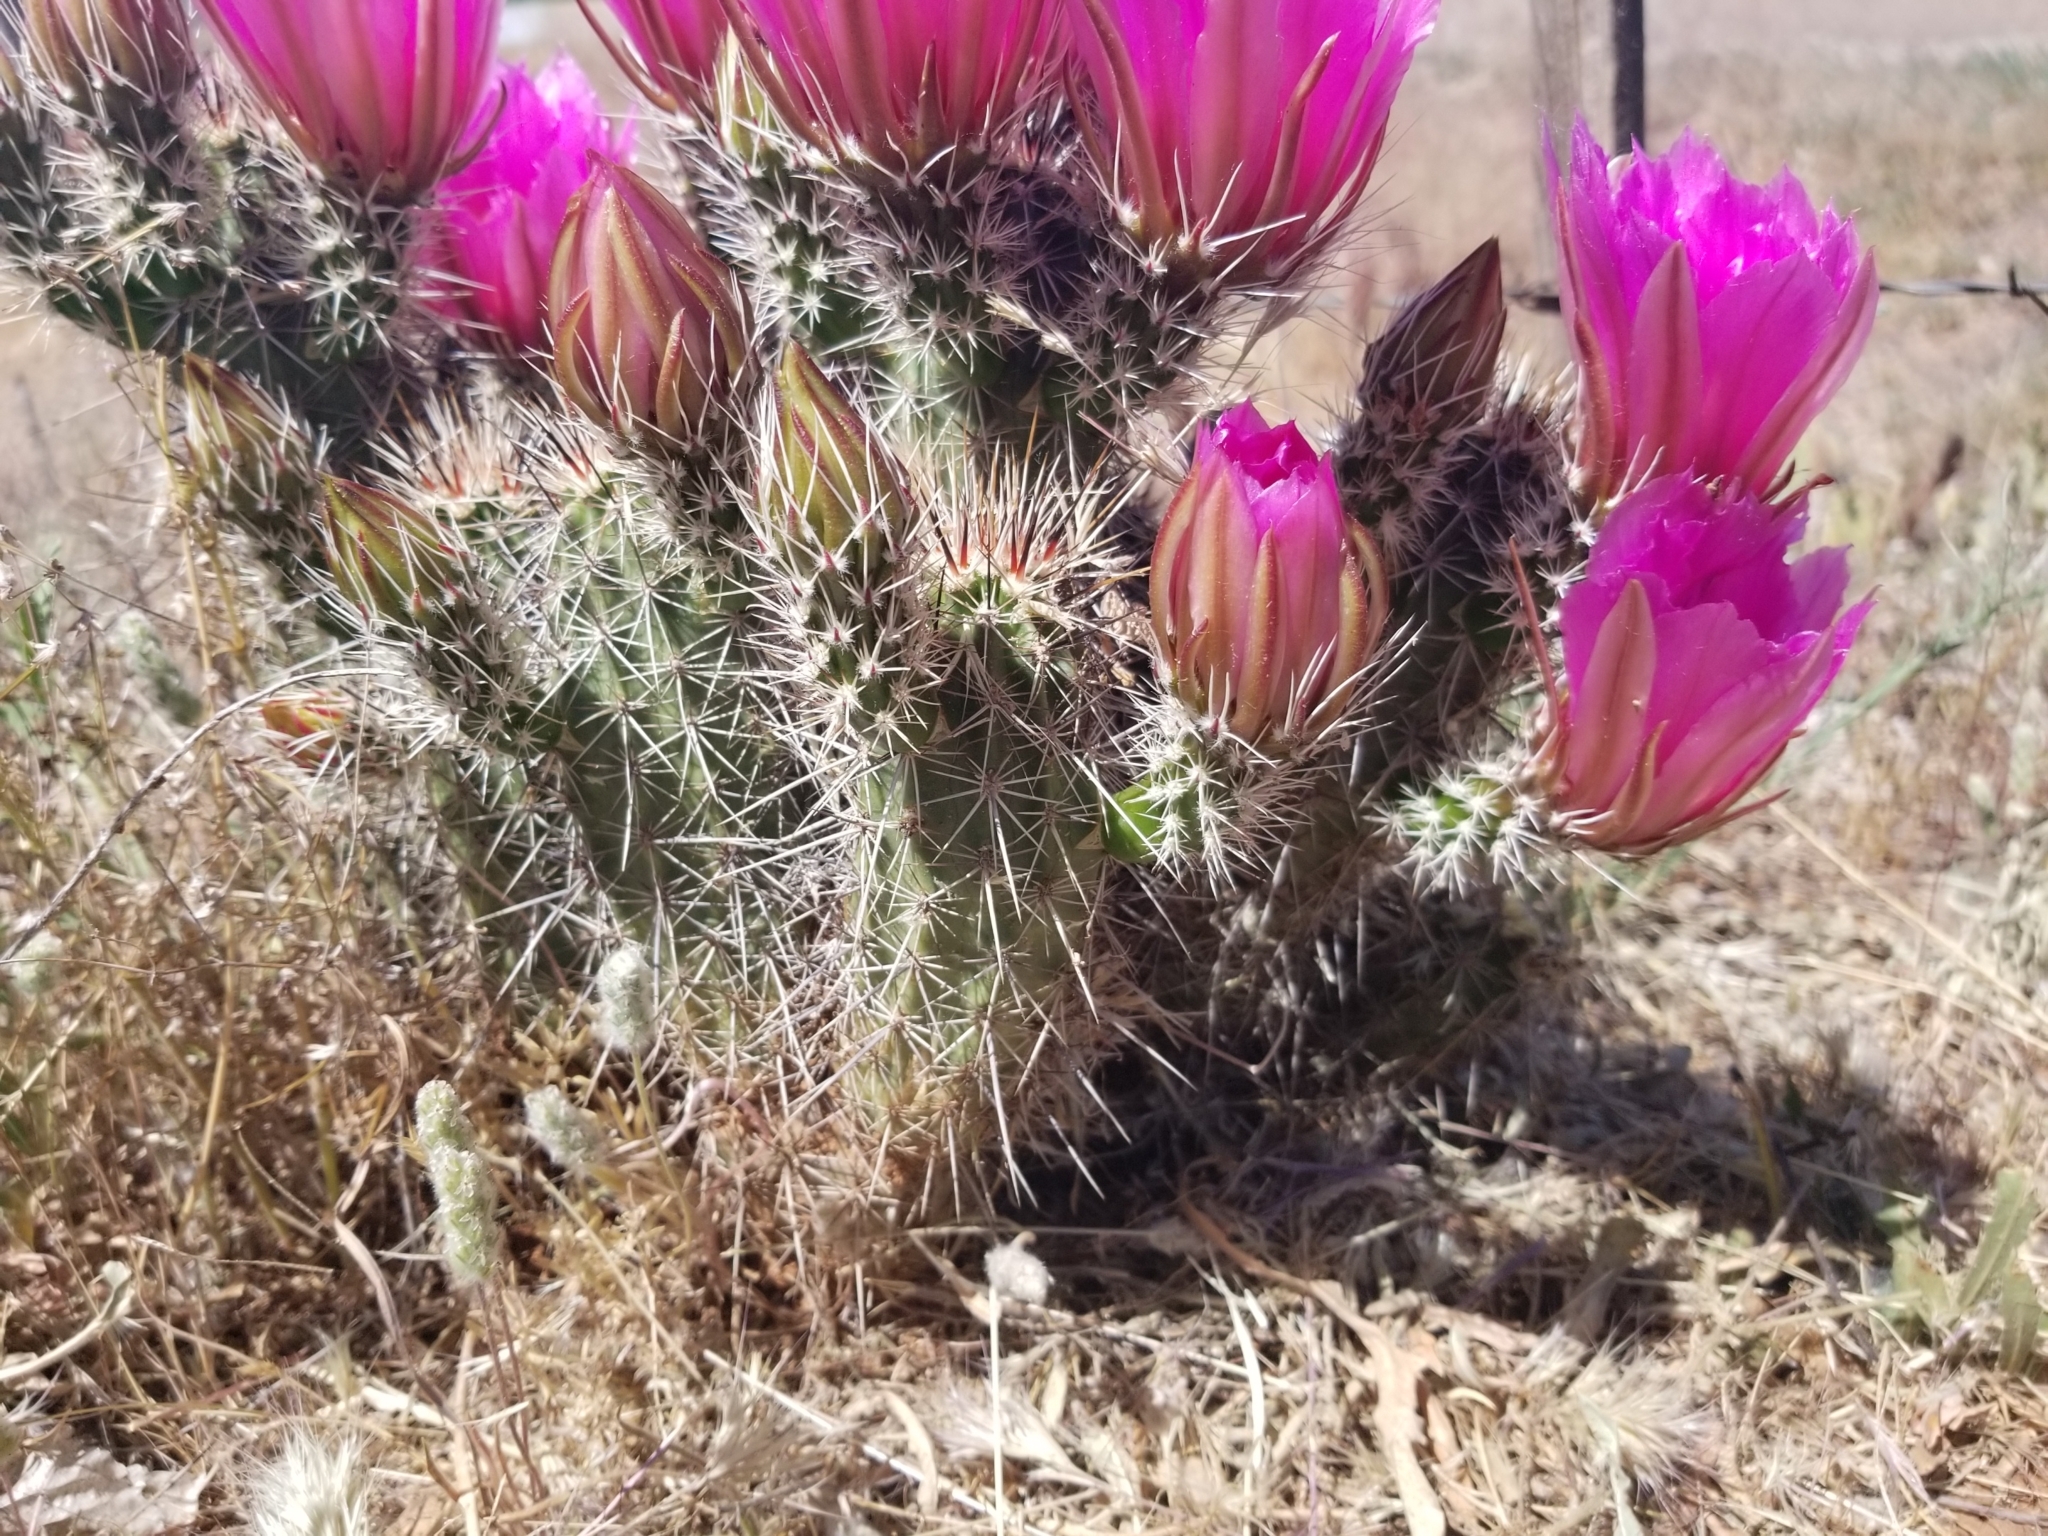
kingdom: Plantae
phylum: Tracheophyta
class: Magnoliopsida
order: Caryophyllales
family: Cactaceae
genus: Echinocereus
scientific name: Echinocereus fasciculatus
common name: Bundle hedgehog
